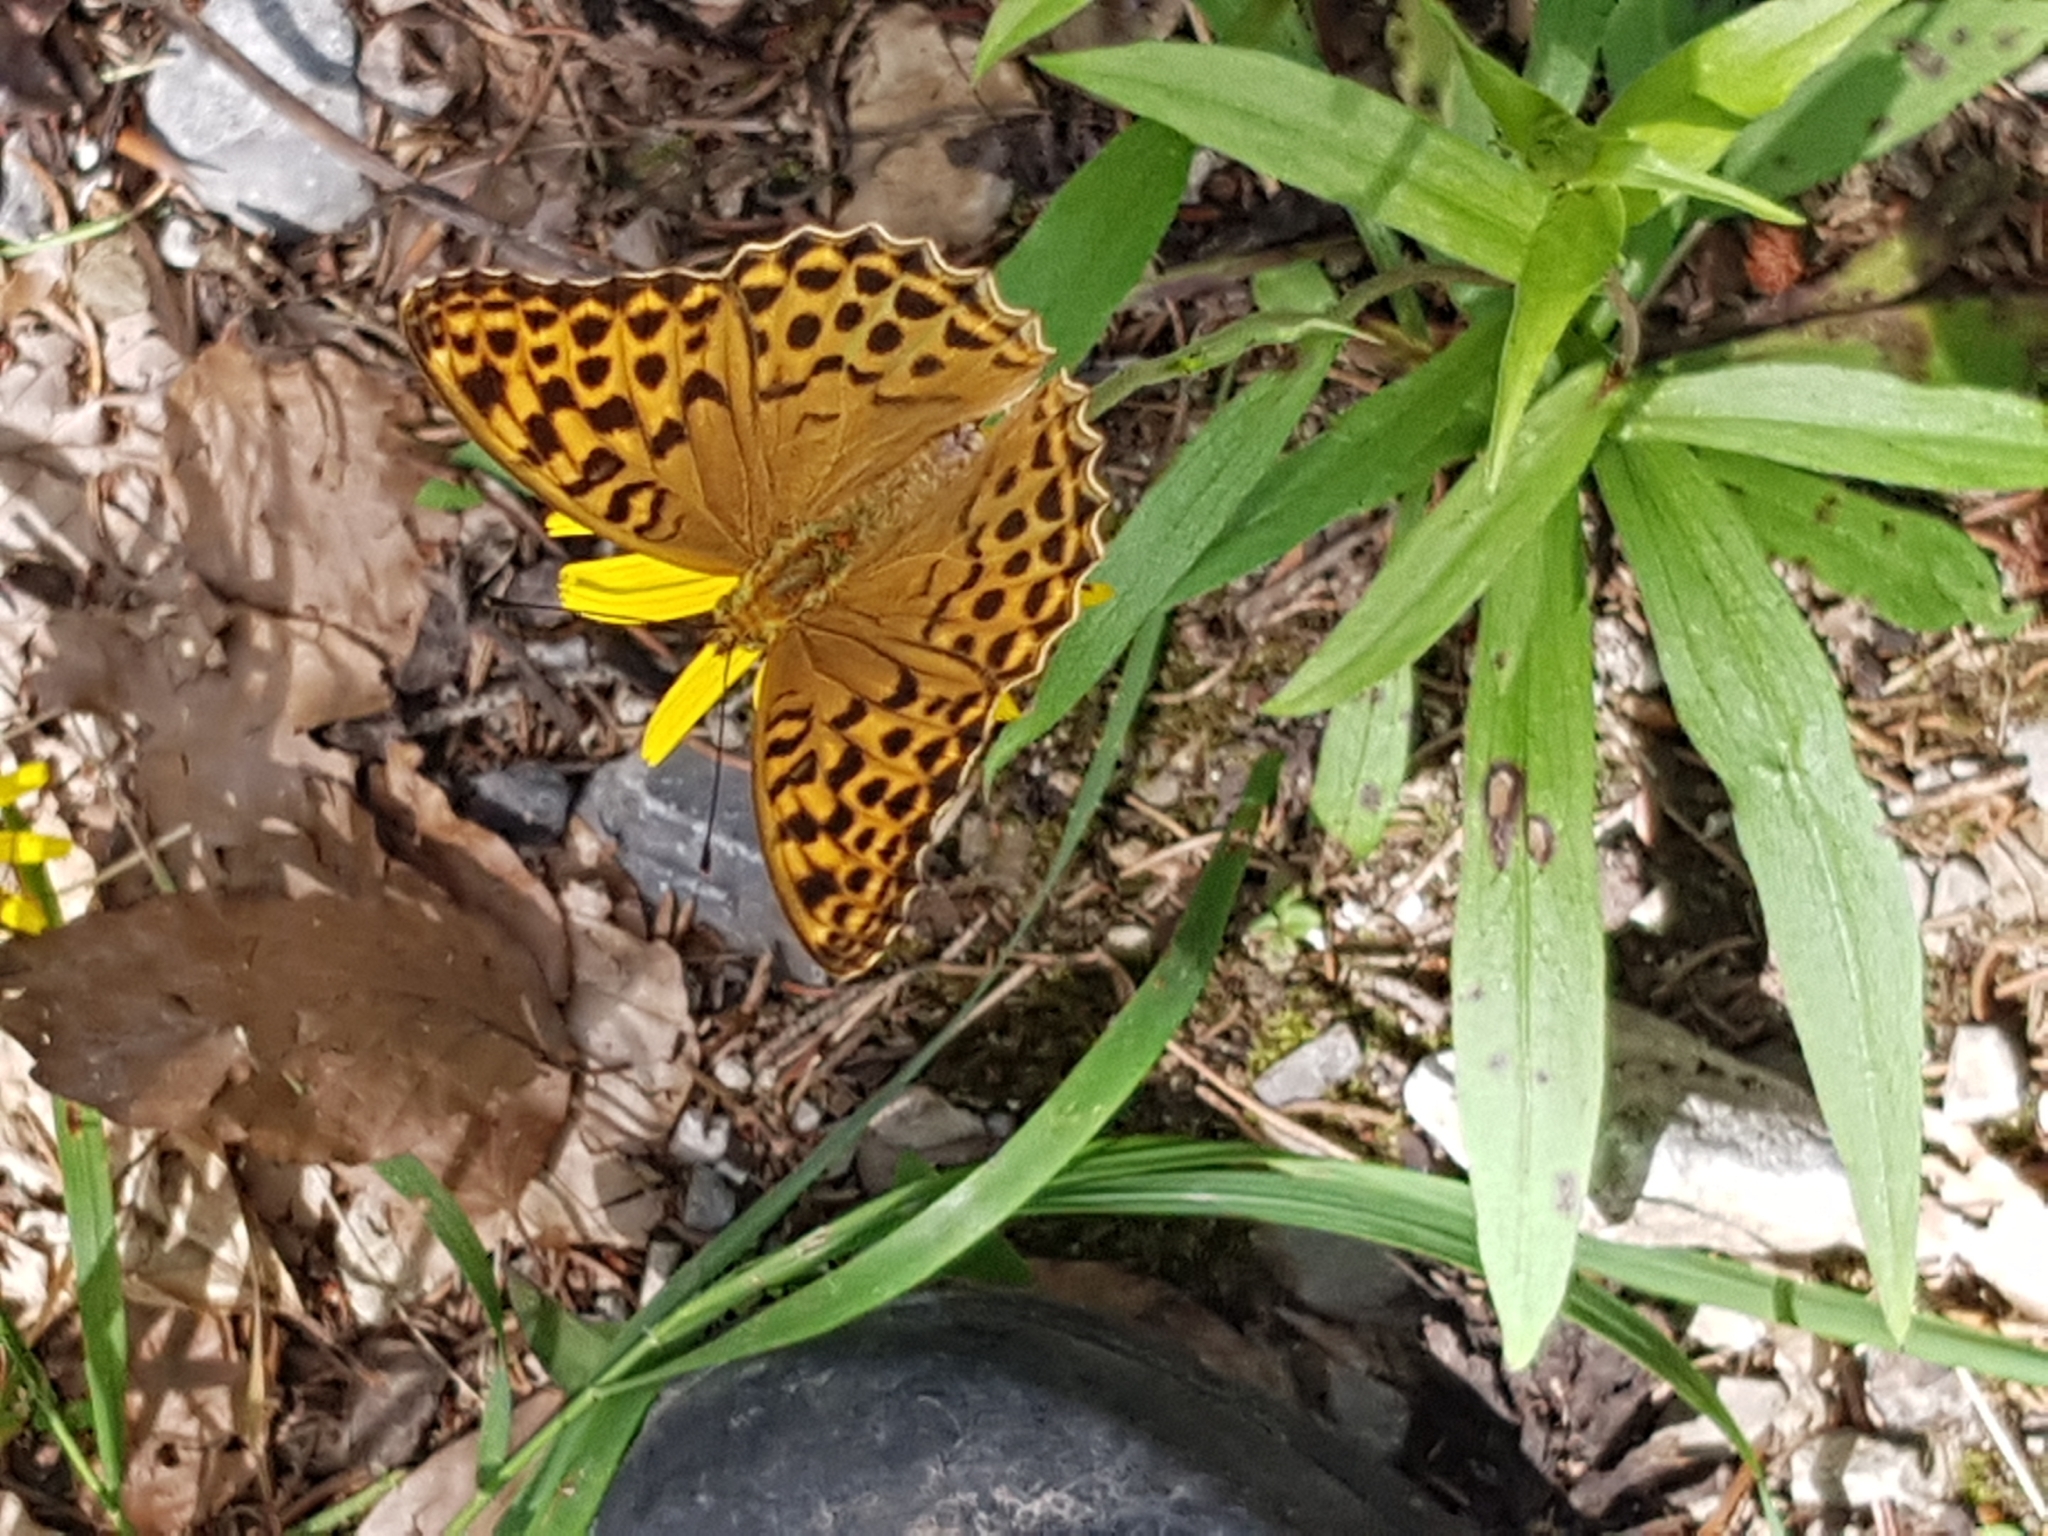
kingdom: Animalia
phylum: Arthropoda
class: Insecta
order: Lepidoptera
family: Nymphalidae
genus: Argynnis
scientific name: Argynnis paphia
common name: Silver-washed fritillary
